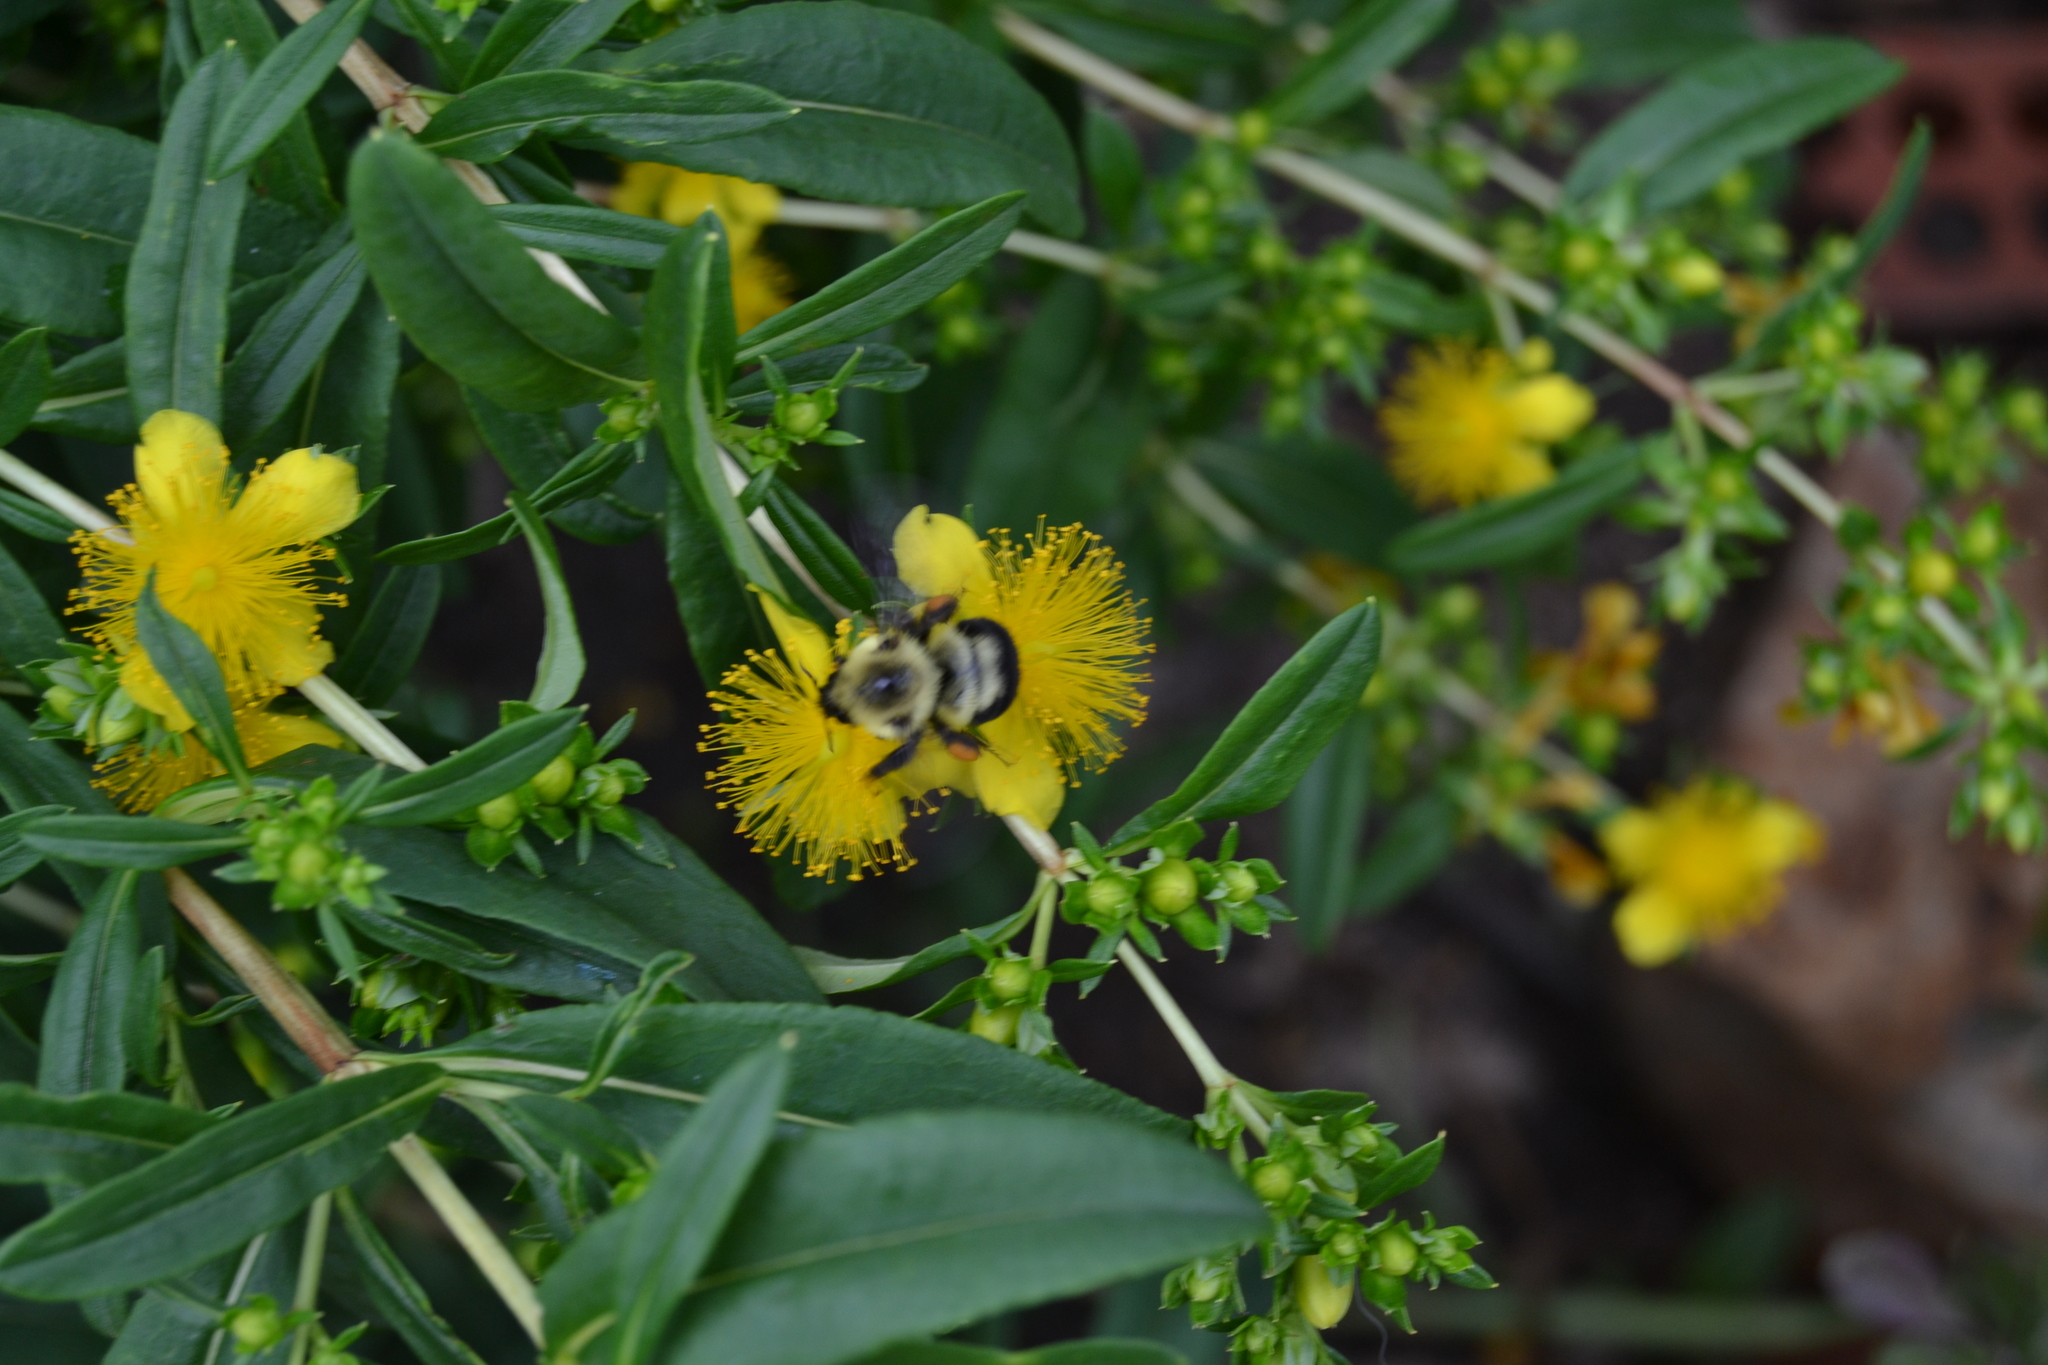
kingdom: Animalia
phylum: Arthropoda
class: Insecta
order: Hymenoptera
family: Apidae
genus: Bombus
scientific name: Bombus bimaculatus
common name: Two-spotted bumble bee
